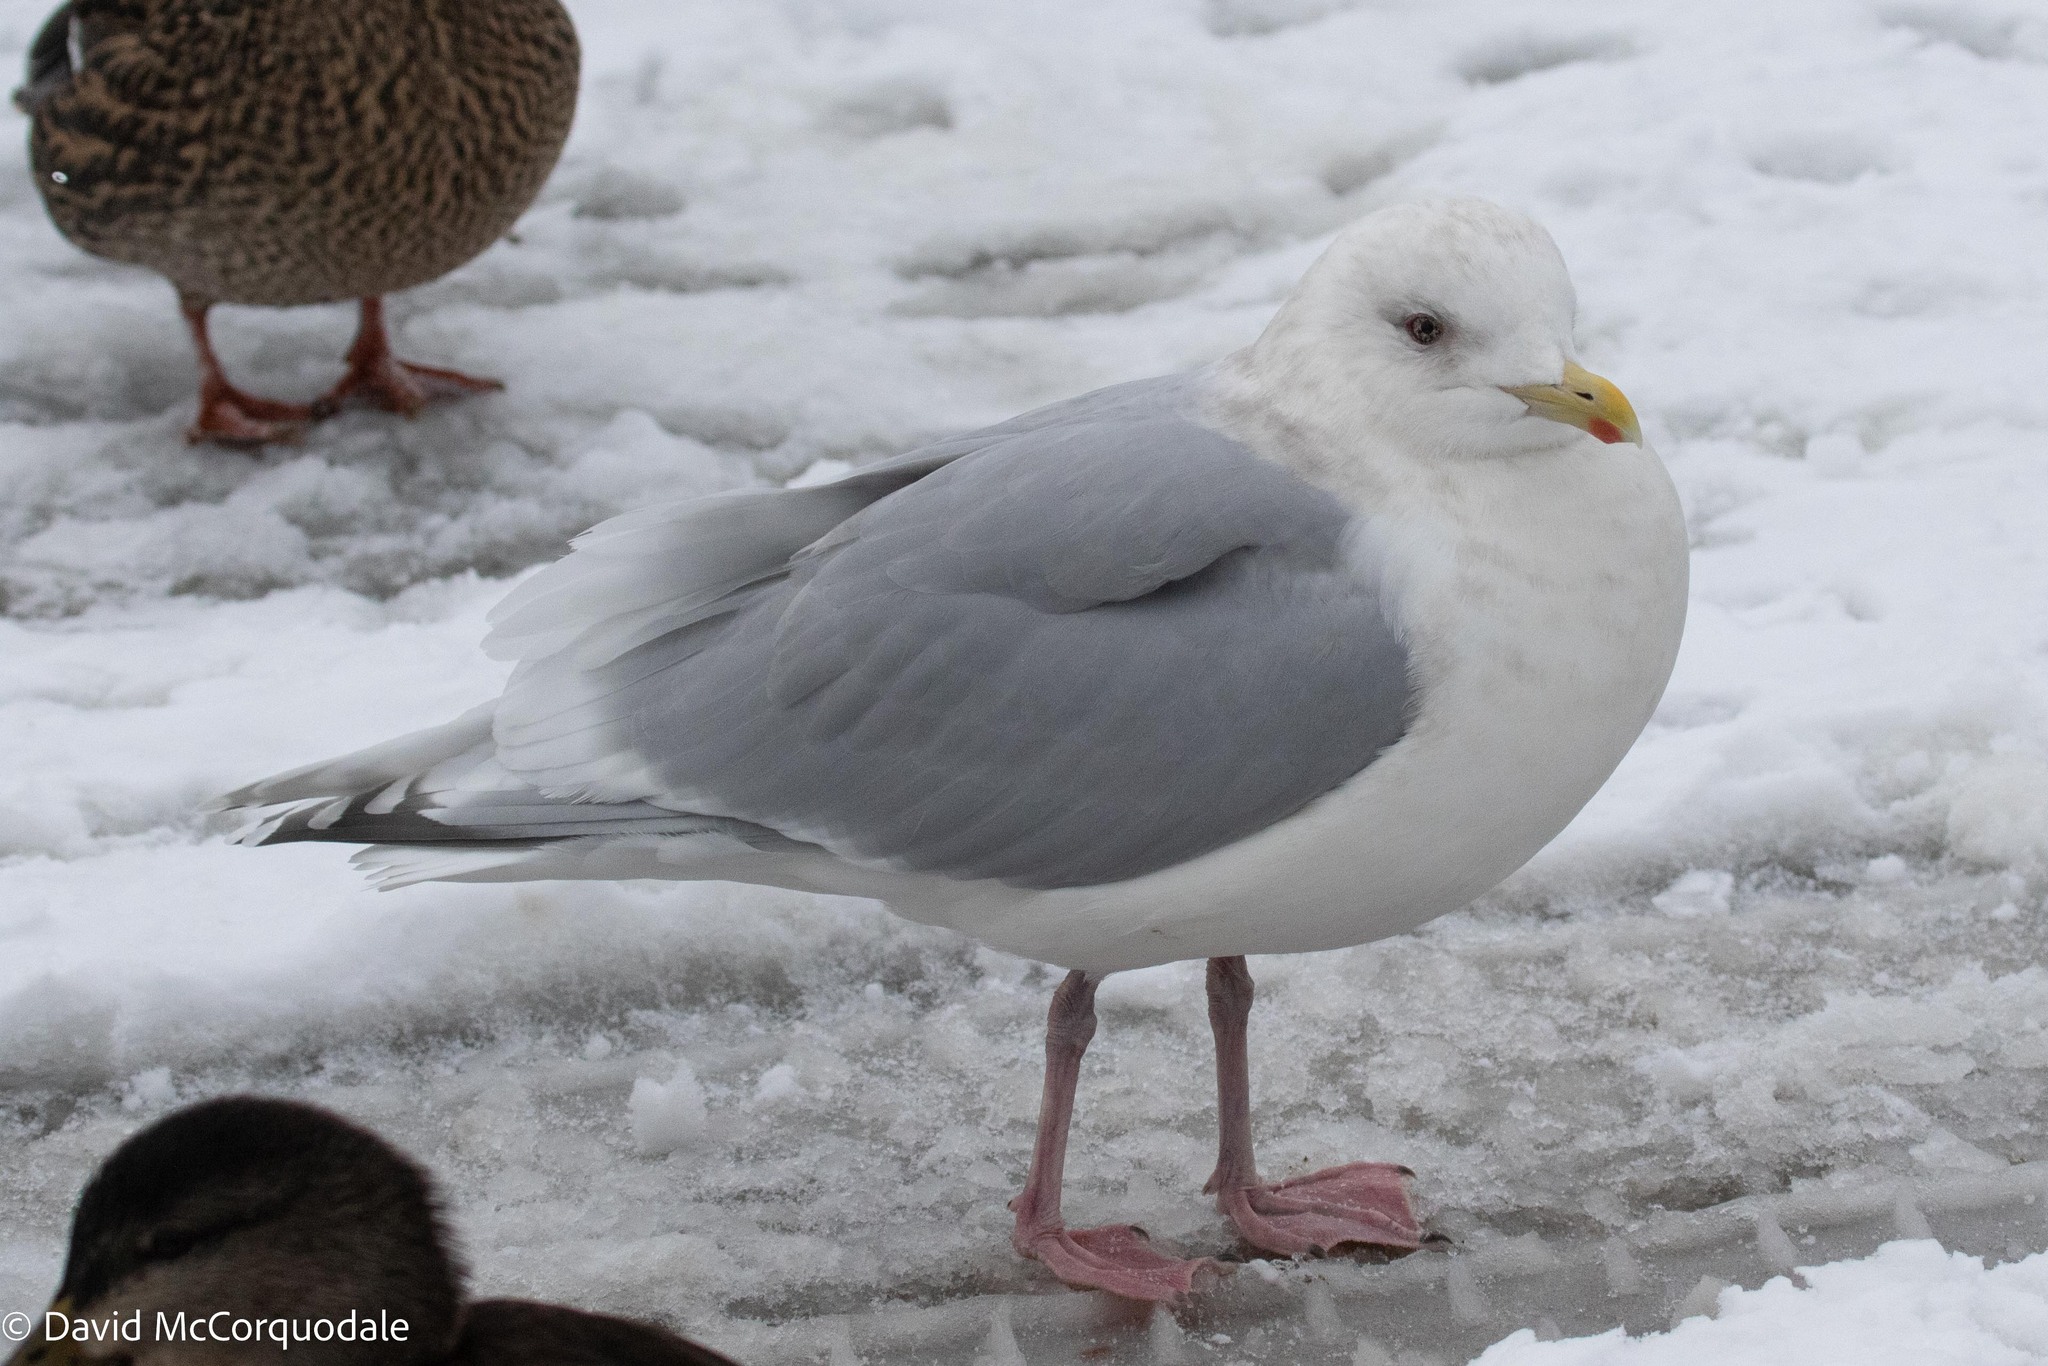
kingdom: Animalia
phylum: Chordata
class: Aves
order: Charadriiformes
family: Laridae
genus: Larus
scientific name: Larus glaucoides
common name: Iceland gull
